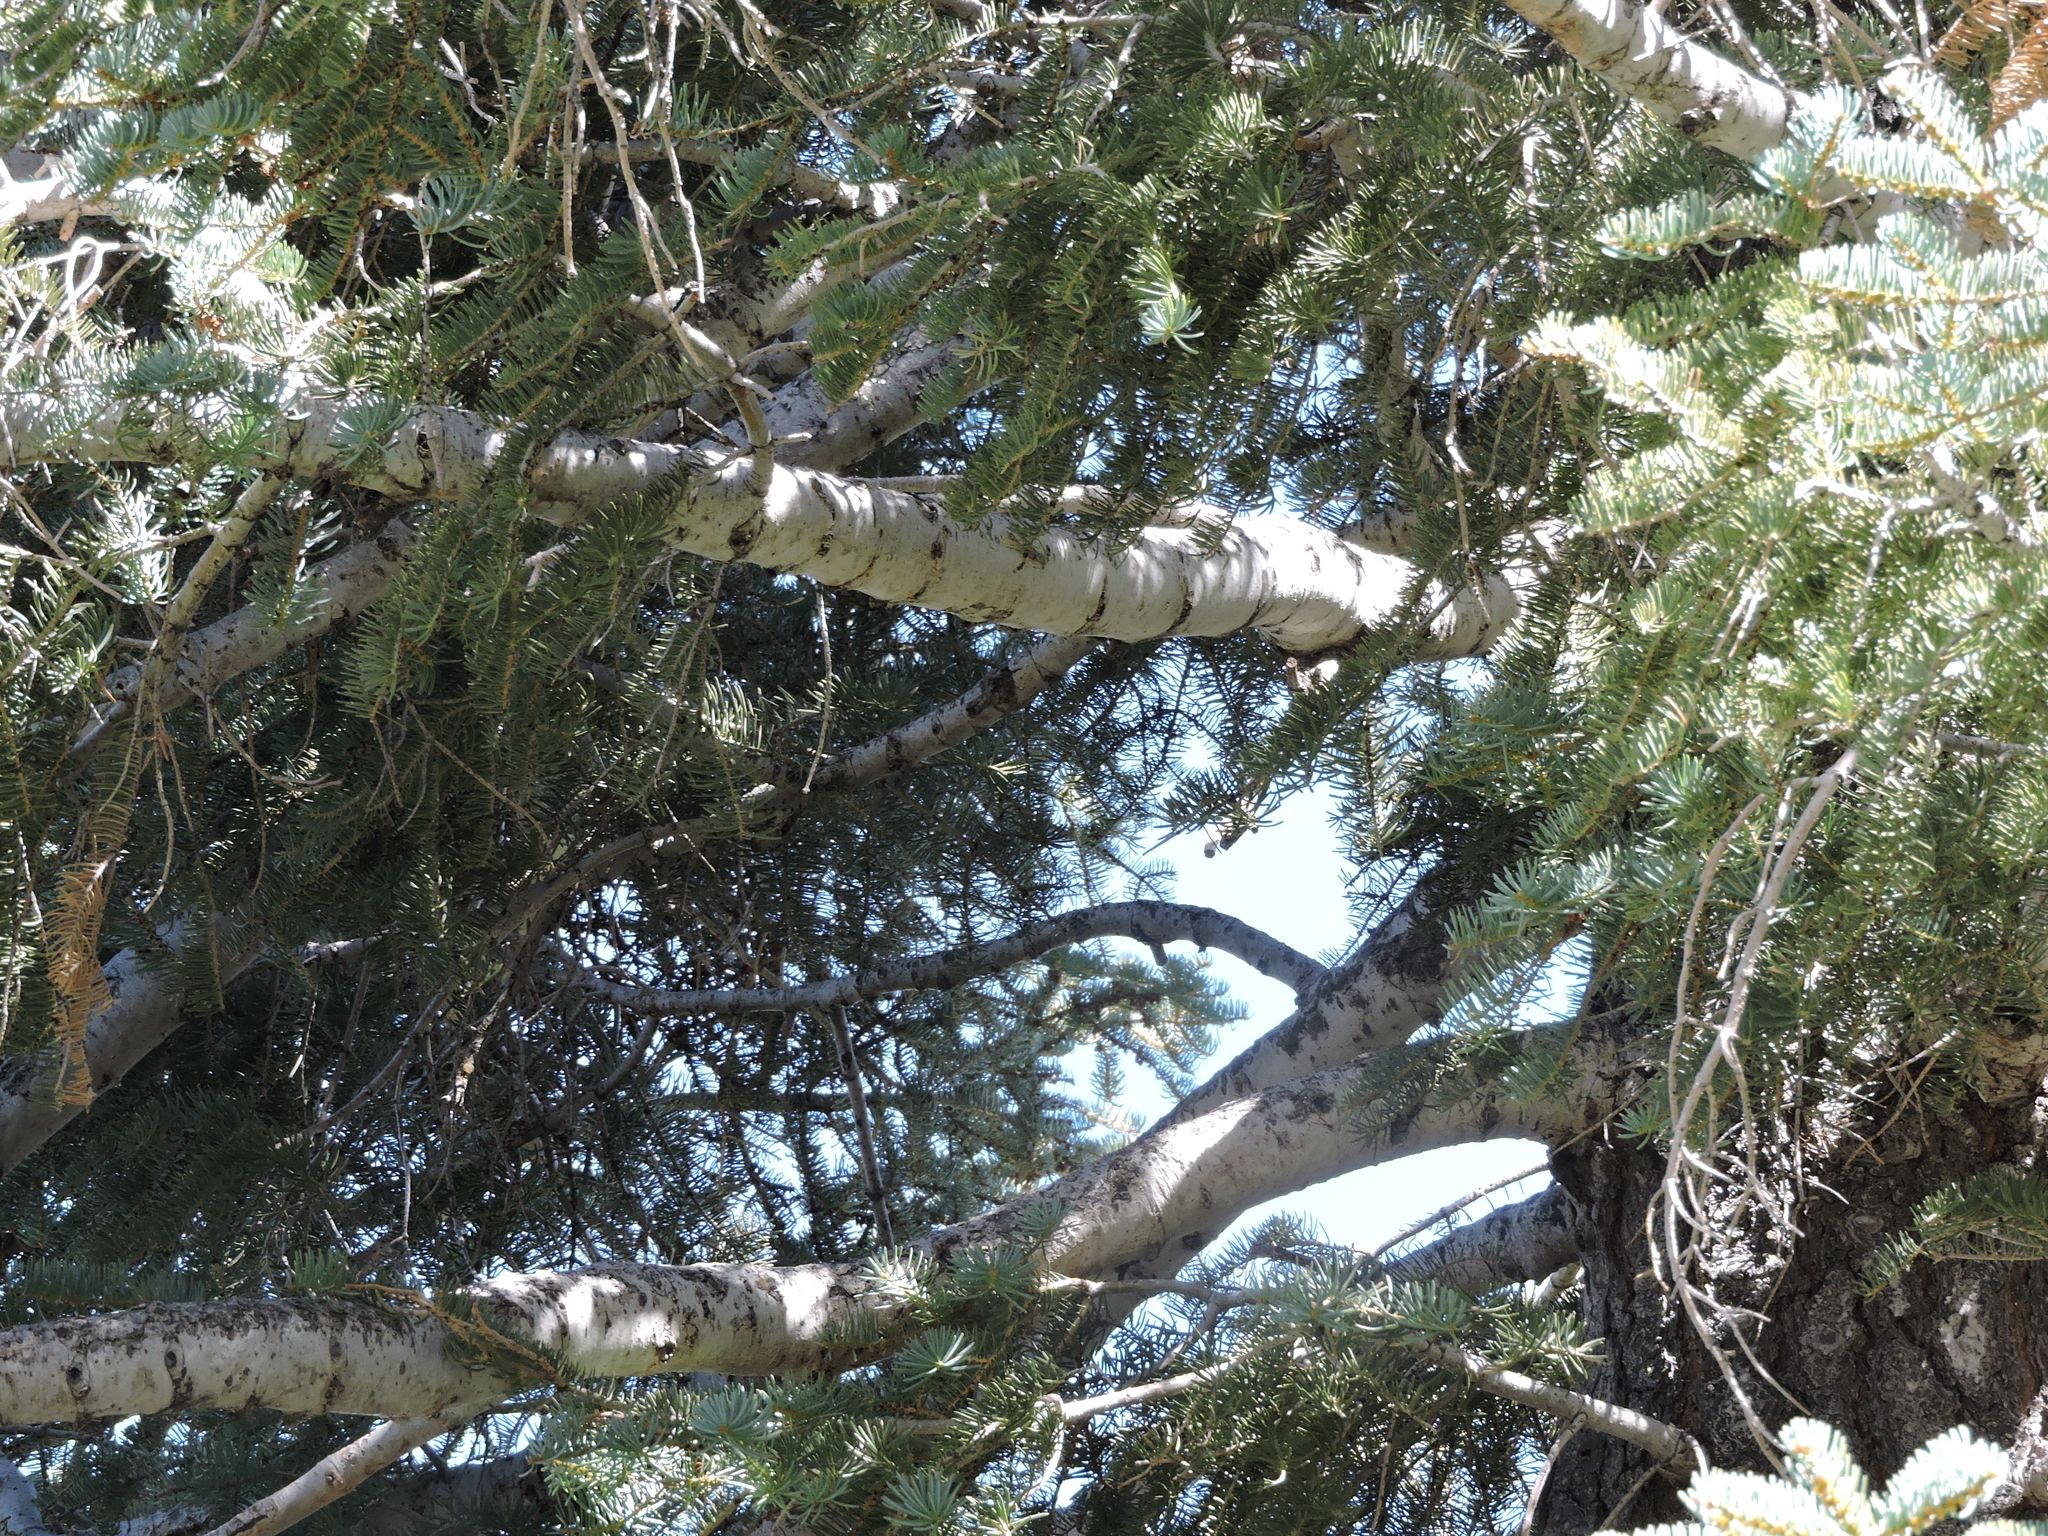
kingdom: Plantae
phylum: Tracheophyta
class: Pinopsida
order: Pinales
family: Pinaceae
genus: Abies
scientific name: Abies concolor
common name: Colorado fir
